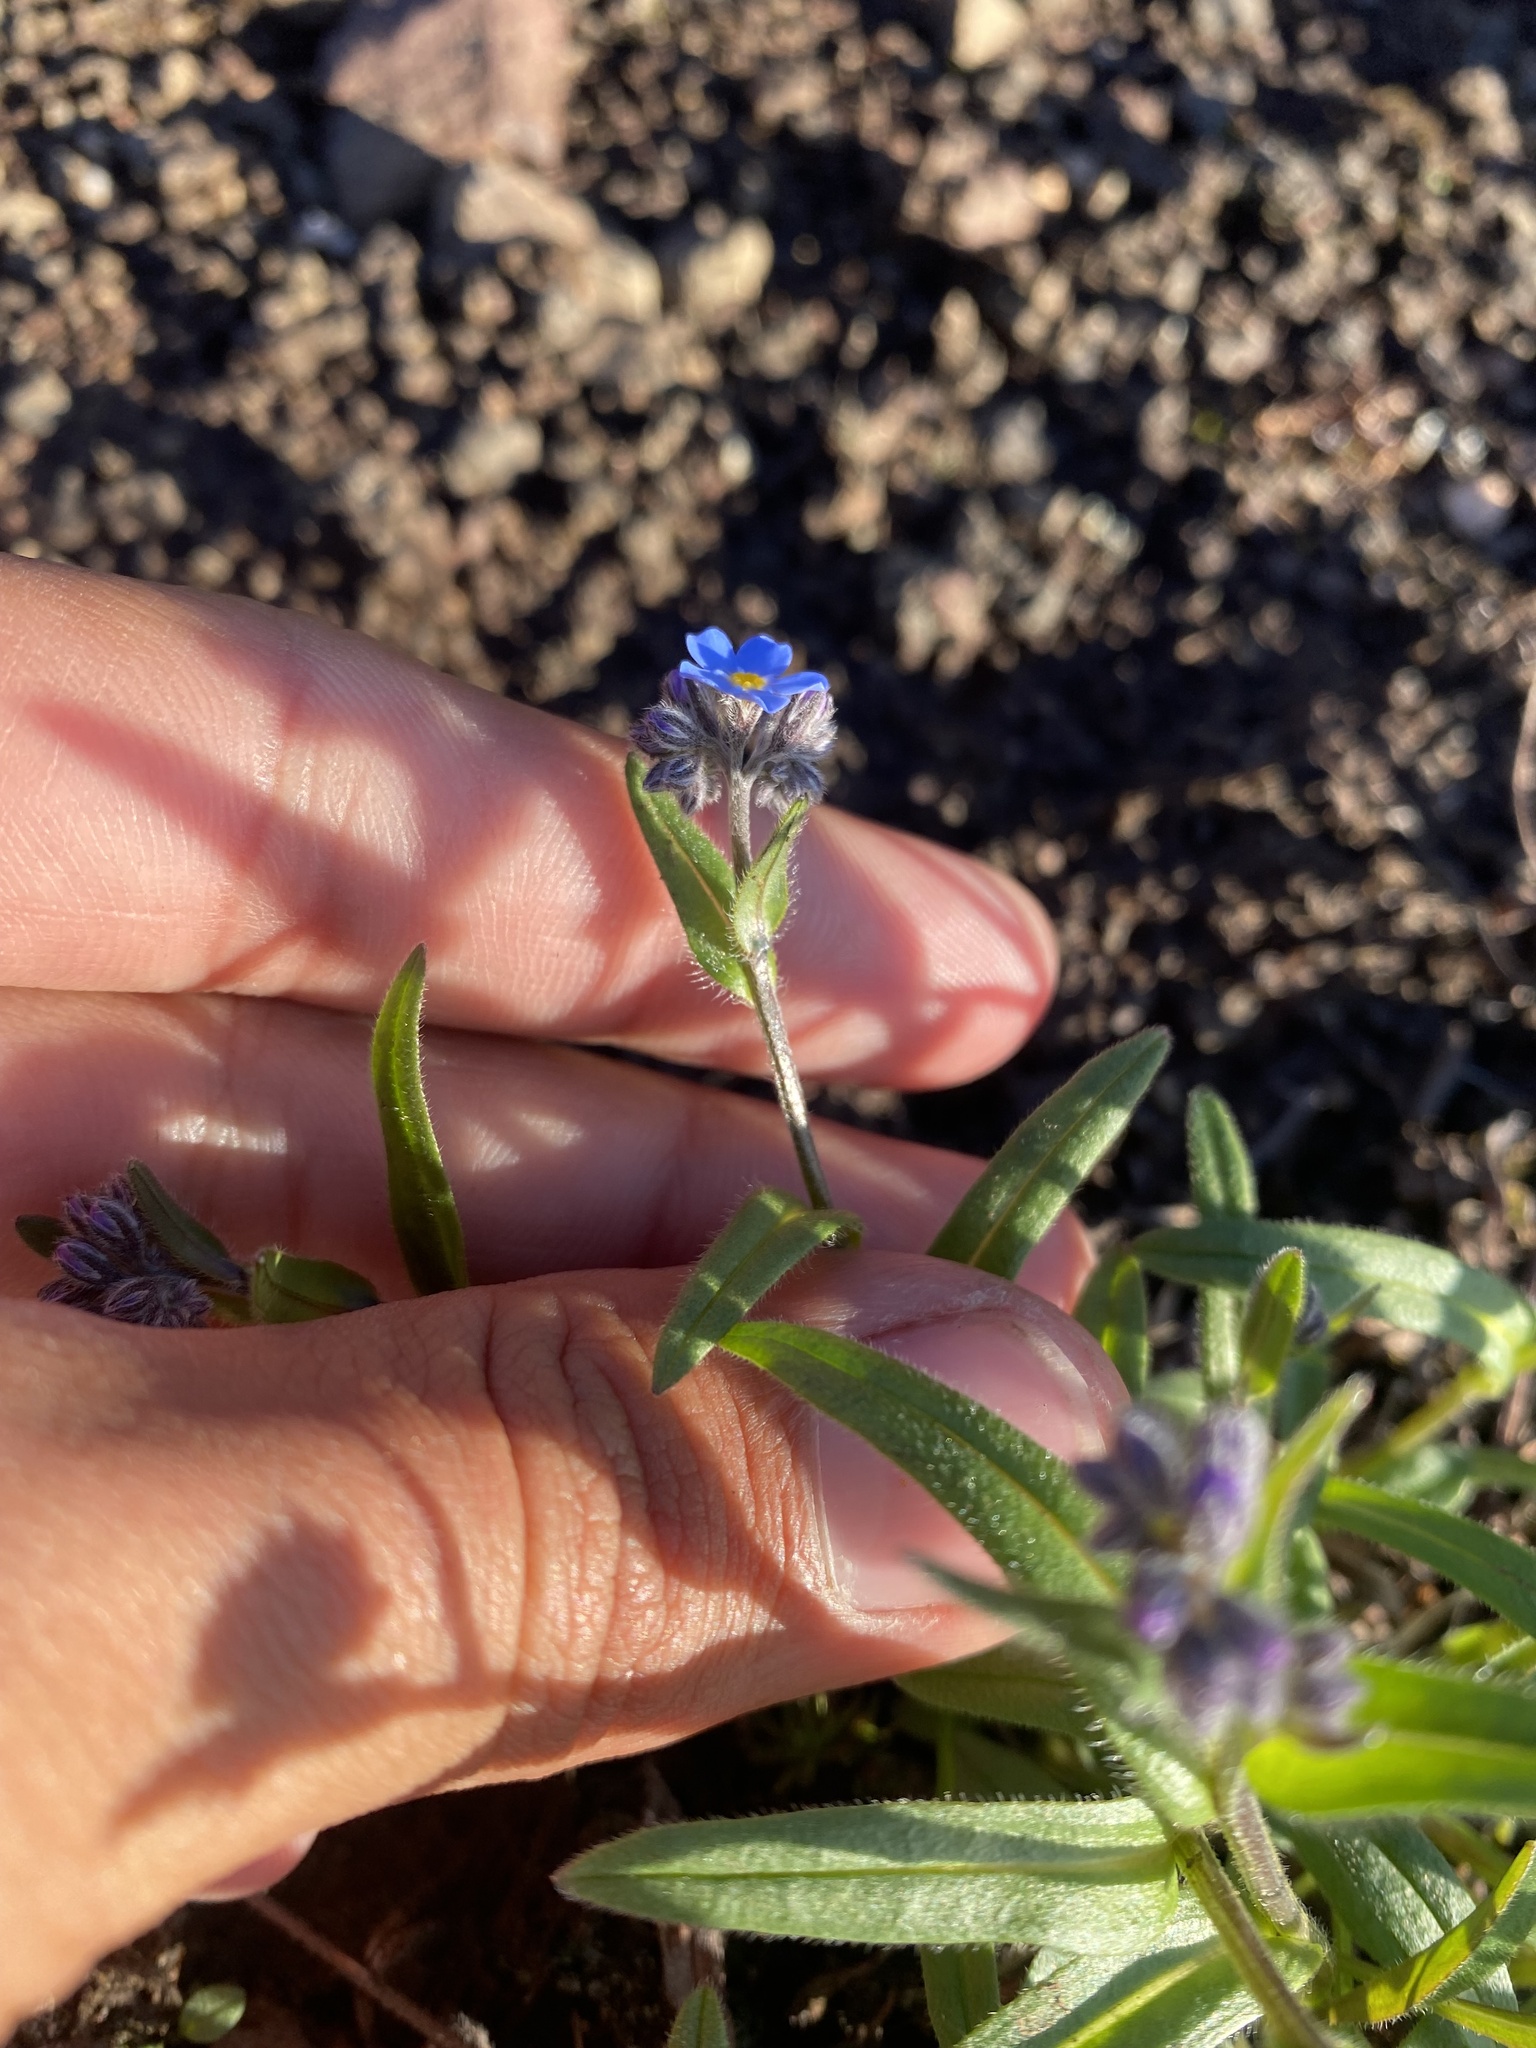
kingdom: Plantae
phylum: Tracheophyta
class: Magnoliopsida
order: Boraginales
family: Boraginaceae
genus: Myosotis
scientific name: Myosotis asiatica
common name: Asian forget-me-not
